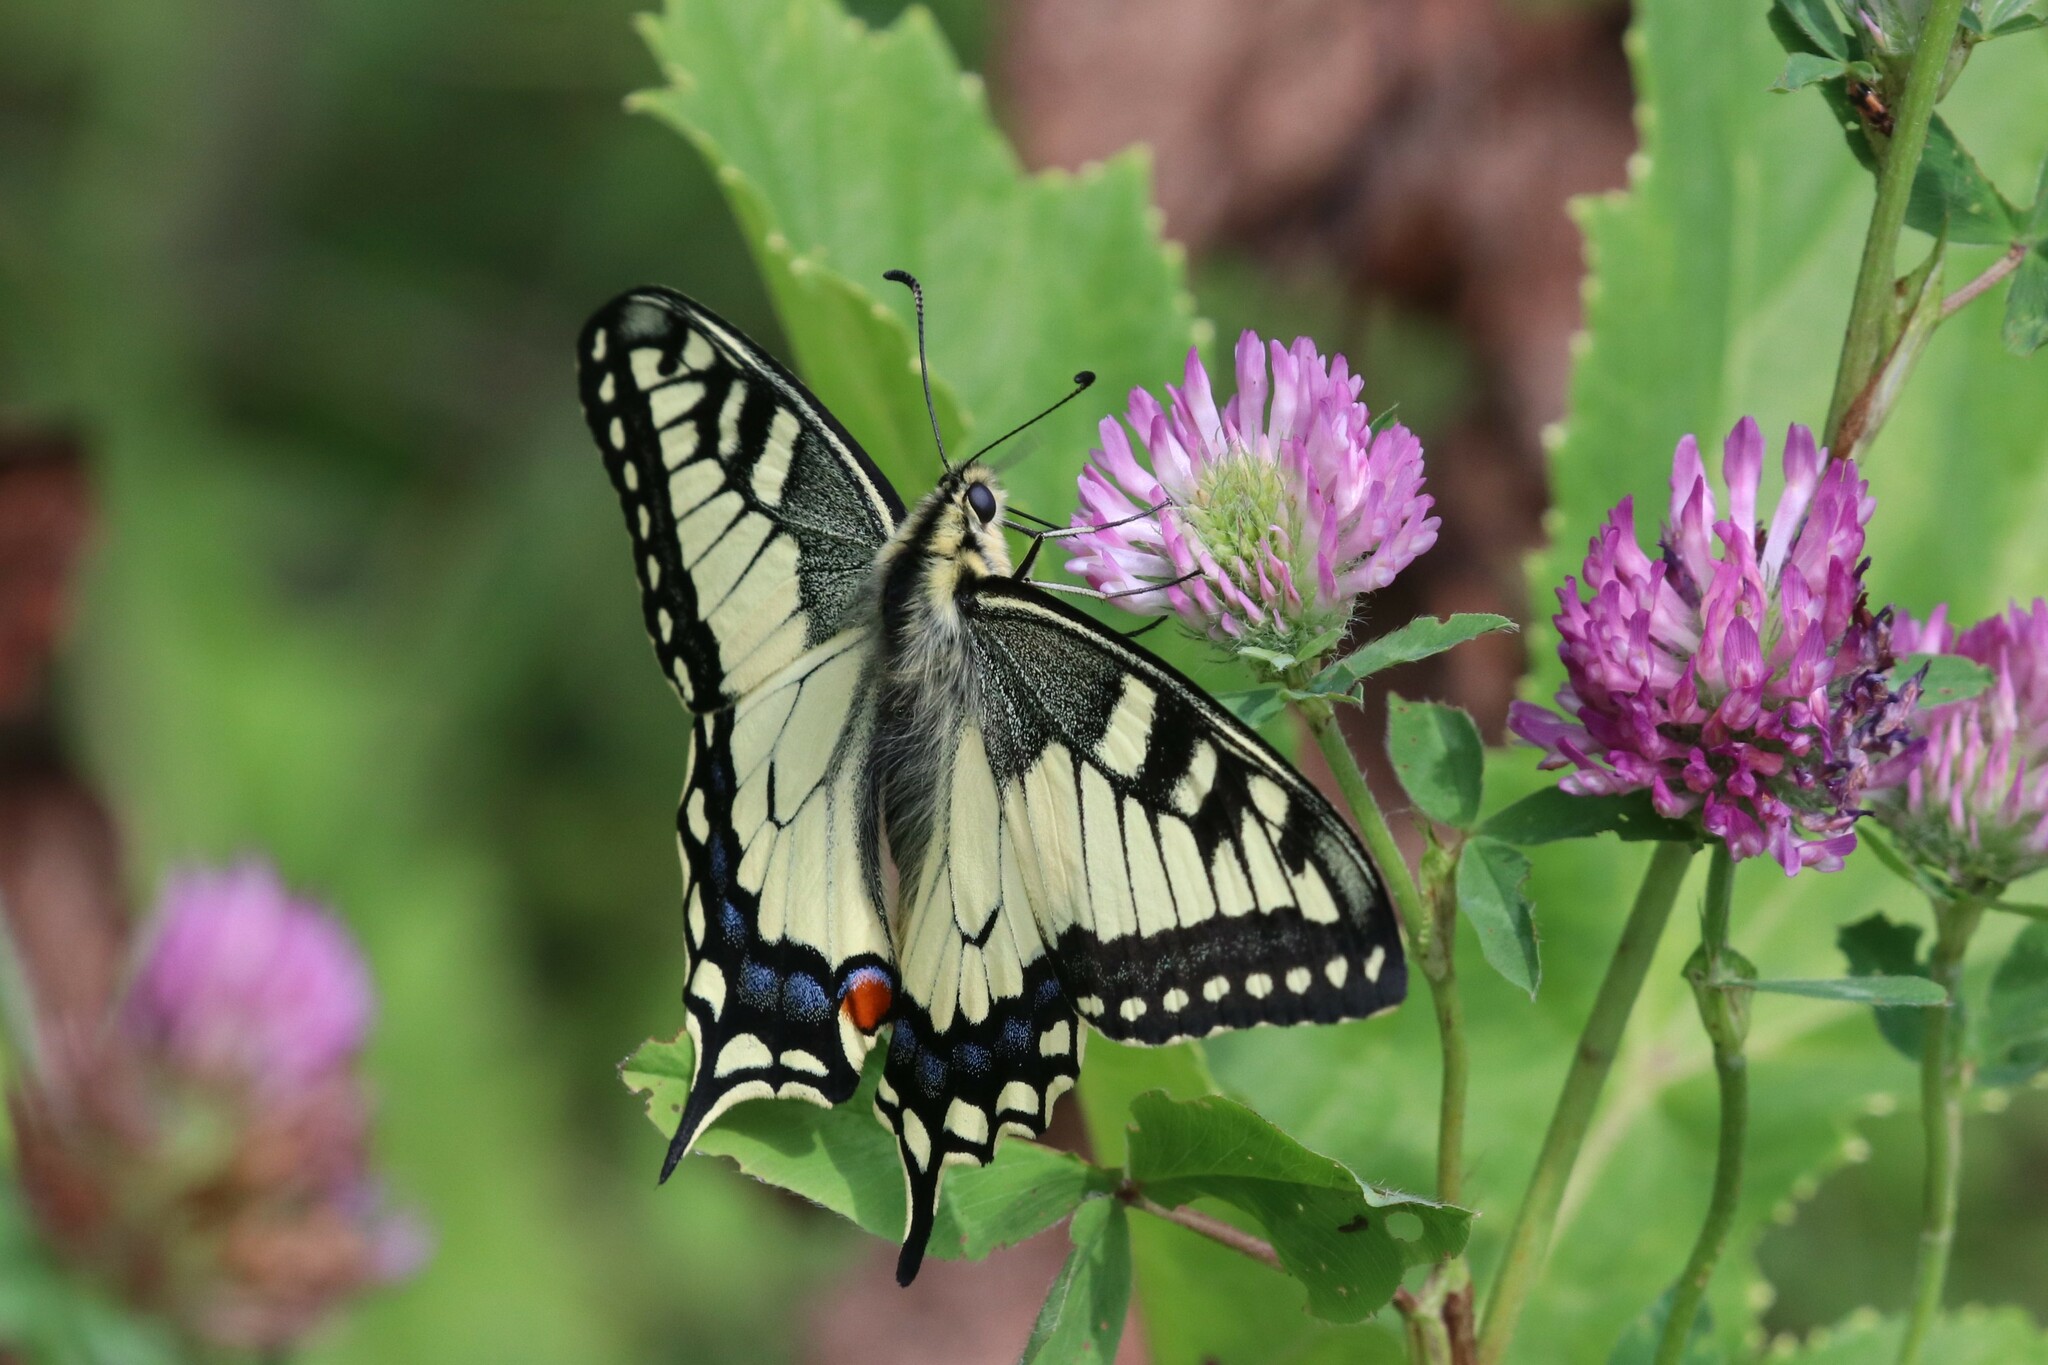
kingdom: Animalia
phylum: Arthropoda
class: Insecta
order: Lepidoptera
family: Papilionidae
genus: Papilio
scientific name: Papilio machaon
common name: Swallowtail
